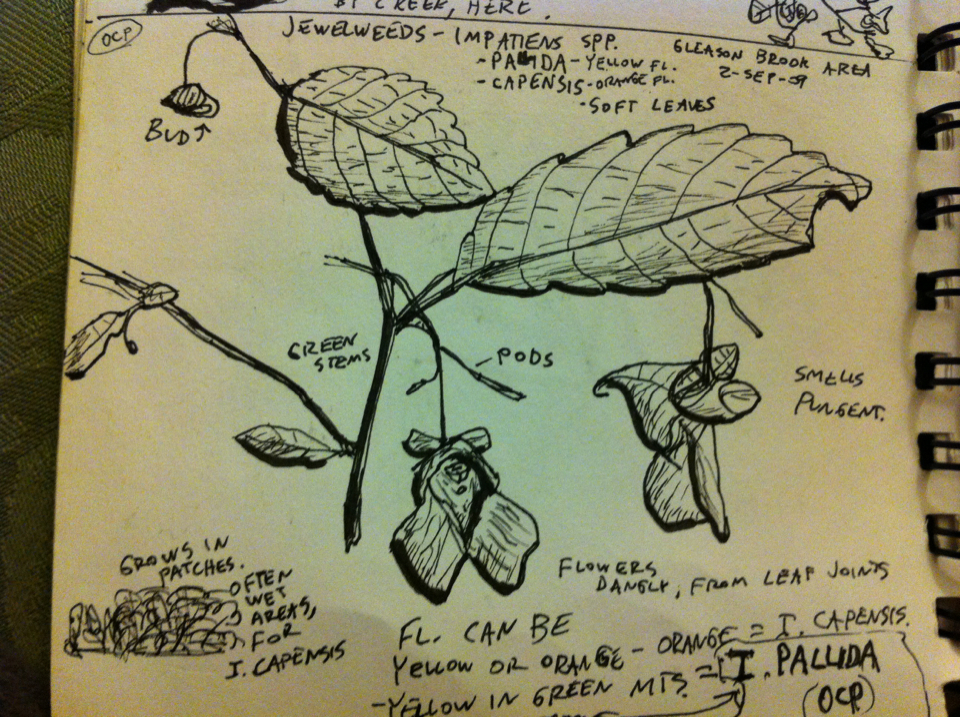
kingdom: Plantae
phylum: Tracheophyta
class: Magnoliopsida
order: Ericales
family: Balsaminaceae
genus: Impatiens
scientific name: Impatiens
